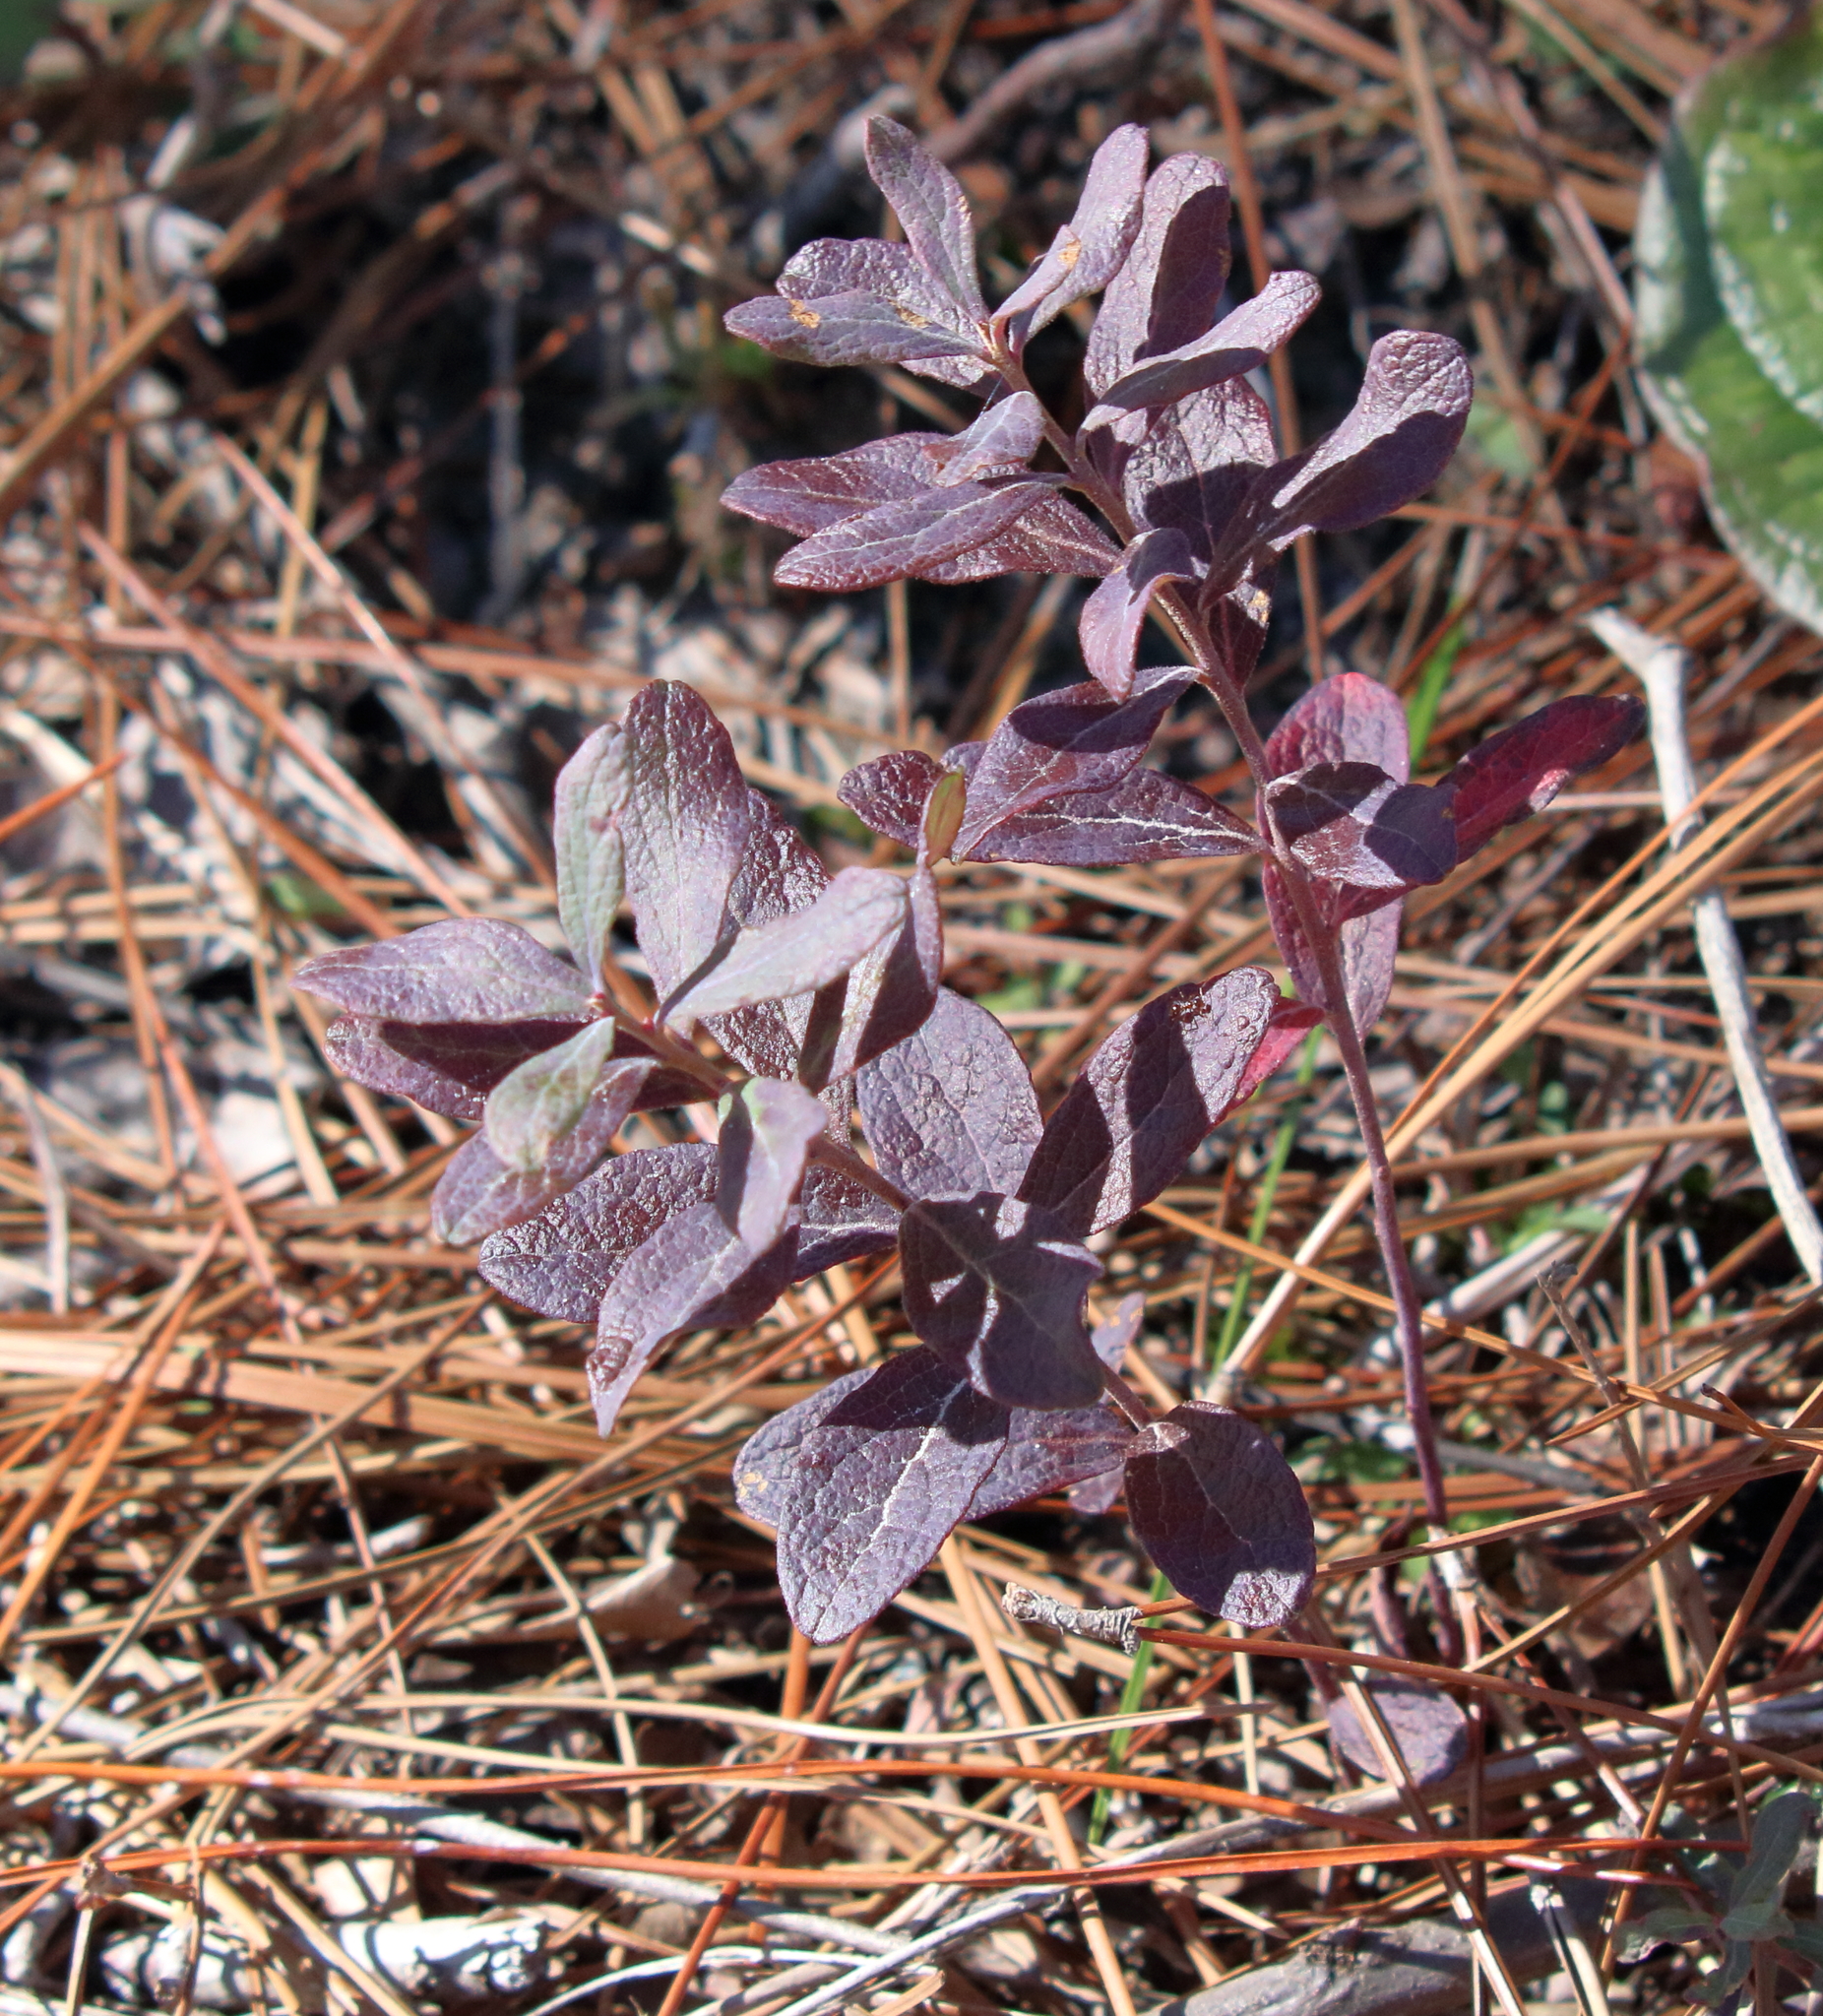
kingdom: Plantae
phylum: Tracheophyta
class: Magnoliopsida
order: Ericales
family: Ericaceae
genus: Gaylussacia
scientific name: Gaylussacia nana
